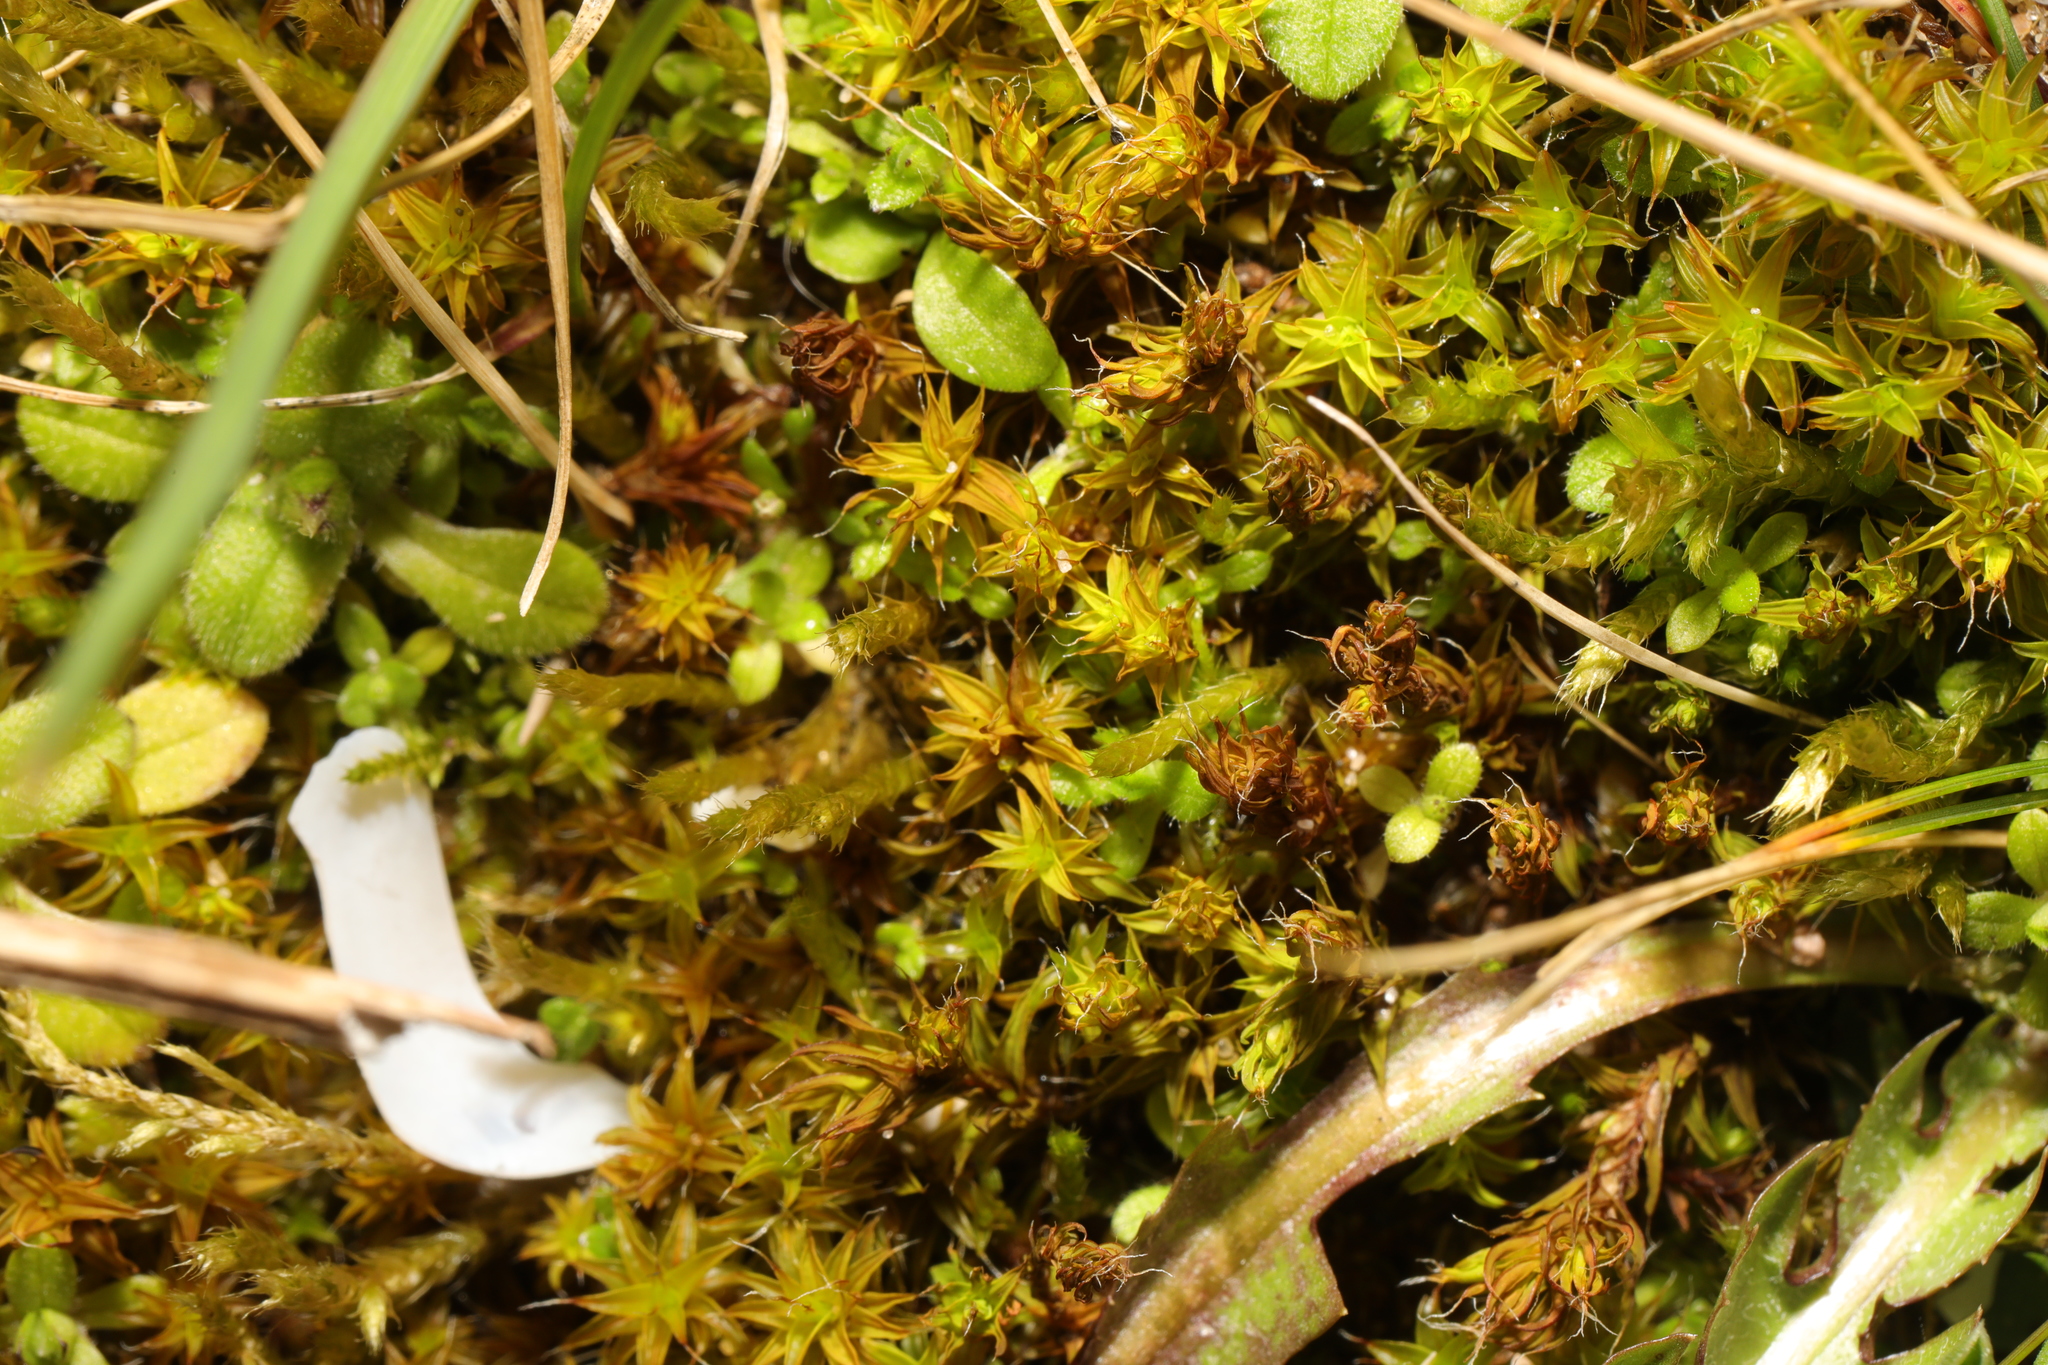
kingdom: Plantae
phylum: Bryophyta
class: Bryopsida
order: Pottiales
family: Pottiaceae
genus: Syntrichia
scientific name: Syntrichia ruralis
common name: Sidewalk screw moss
